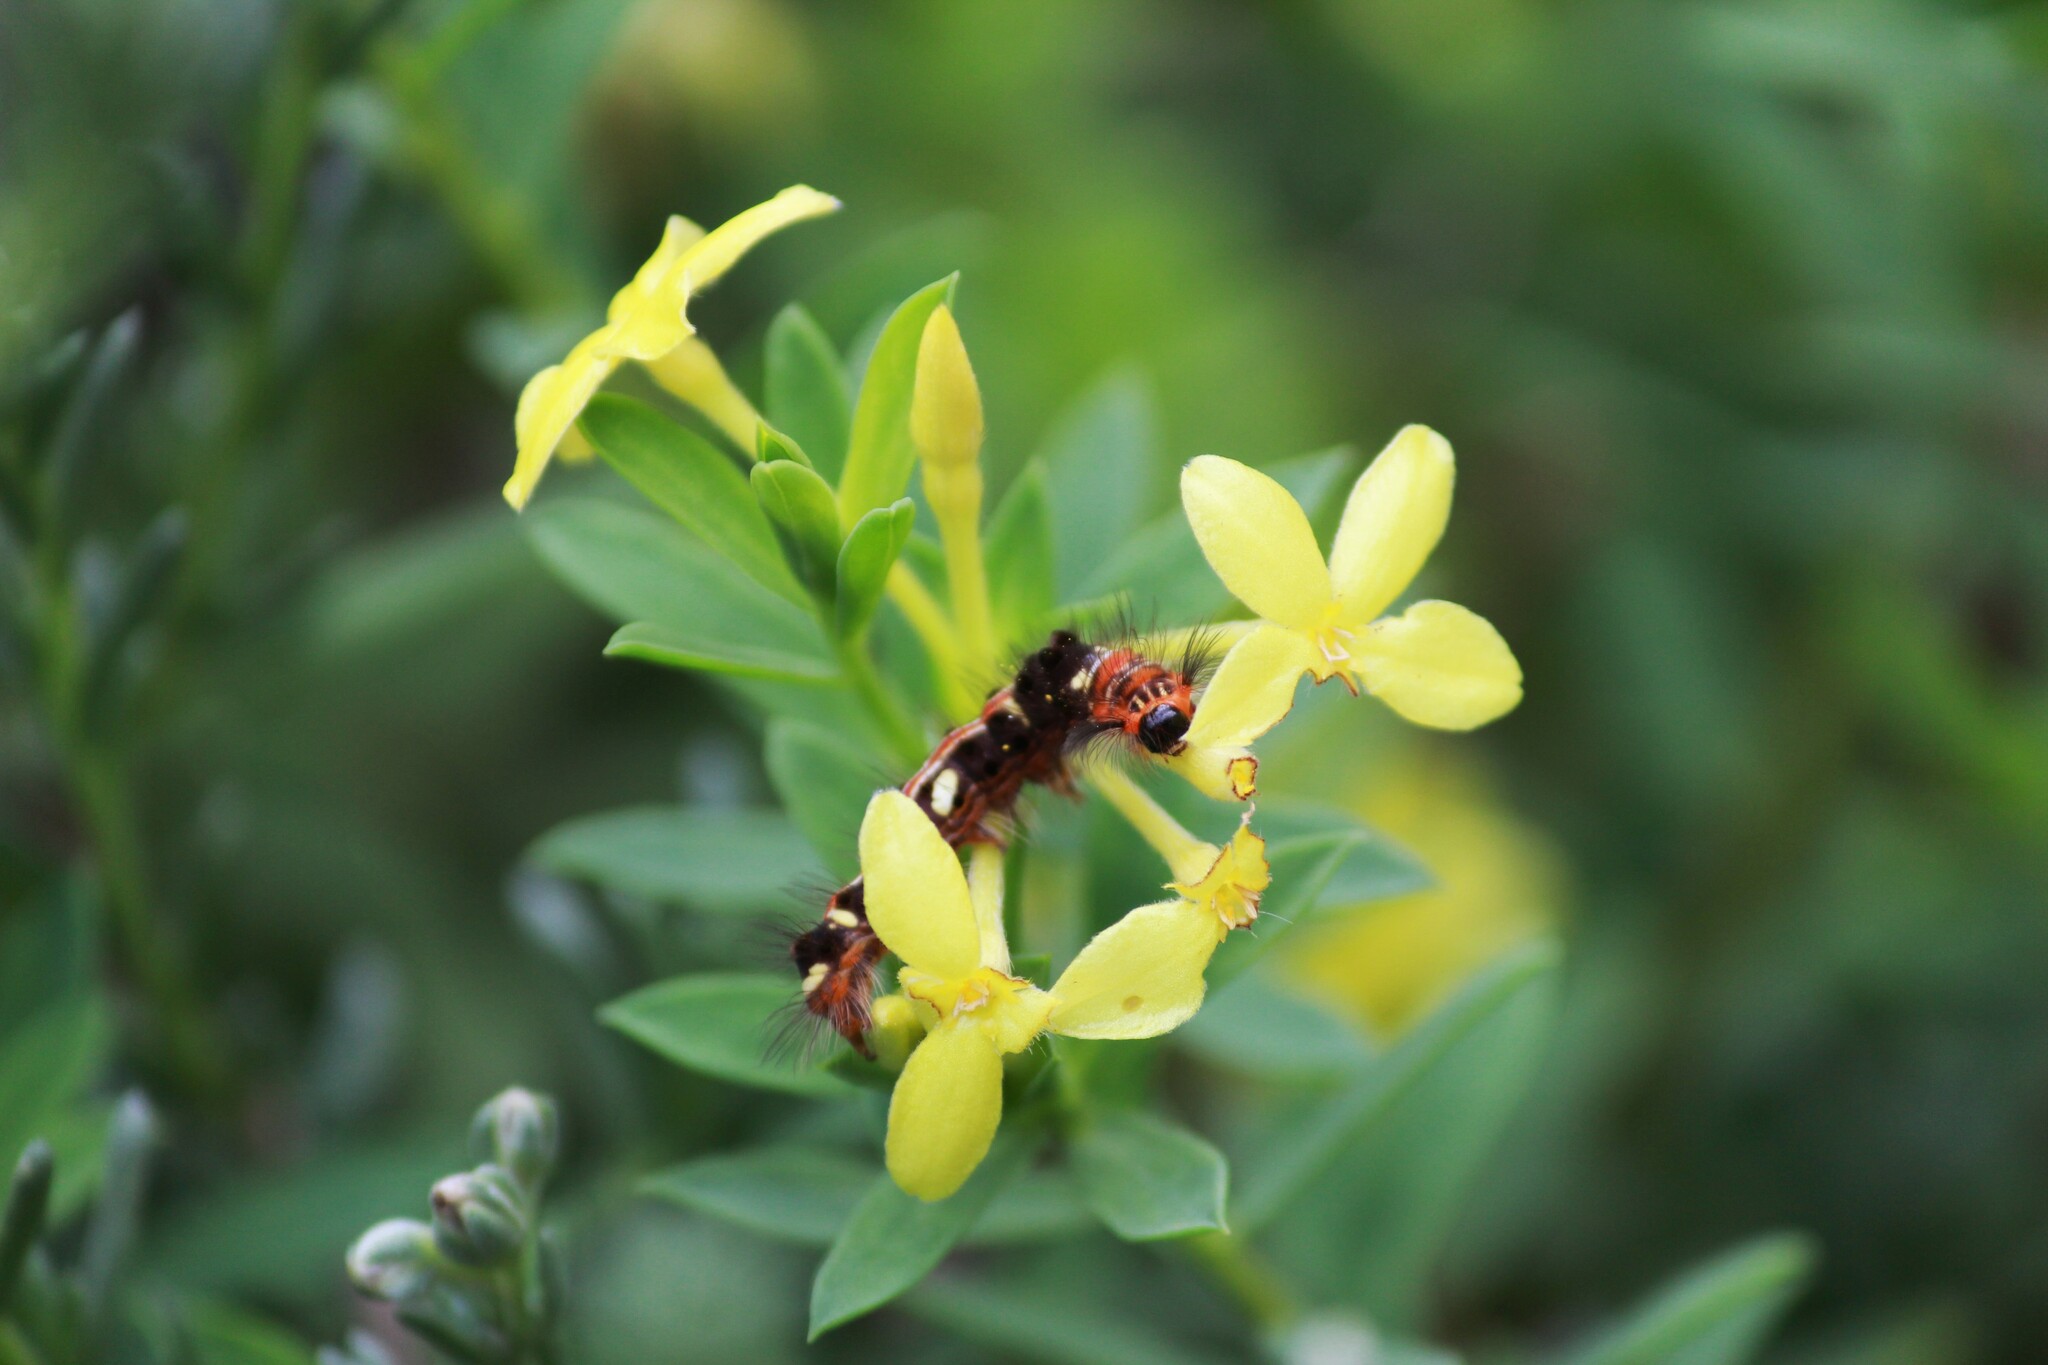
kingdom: Animalia
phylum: Arthropoda
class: Insecta
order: Lepidoptera
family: Erebidae
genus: Euproctis
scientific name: Euproctis aethiopica
